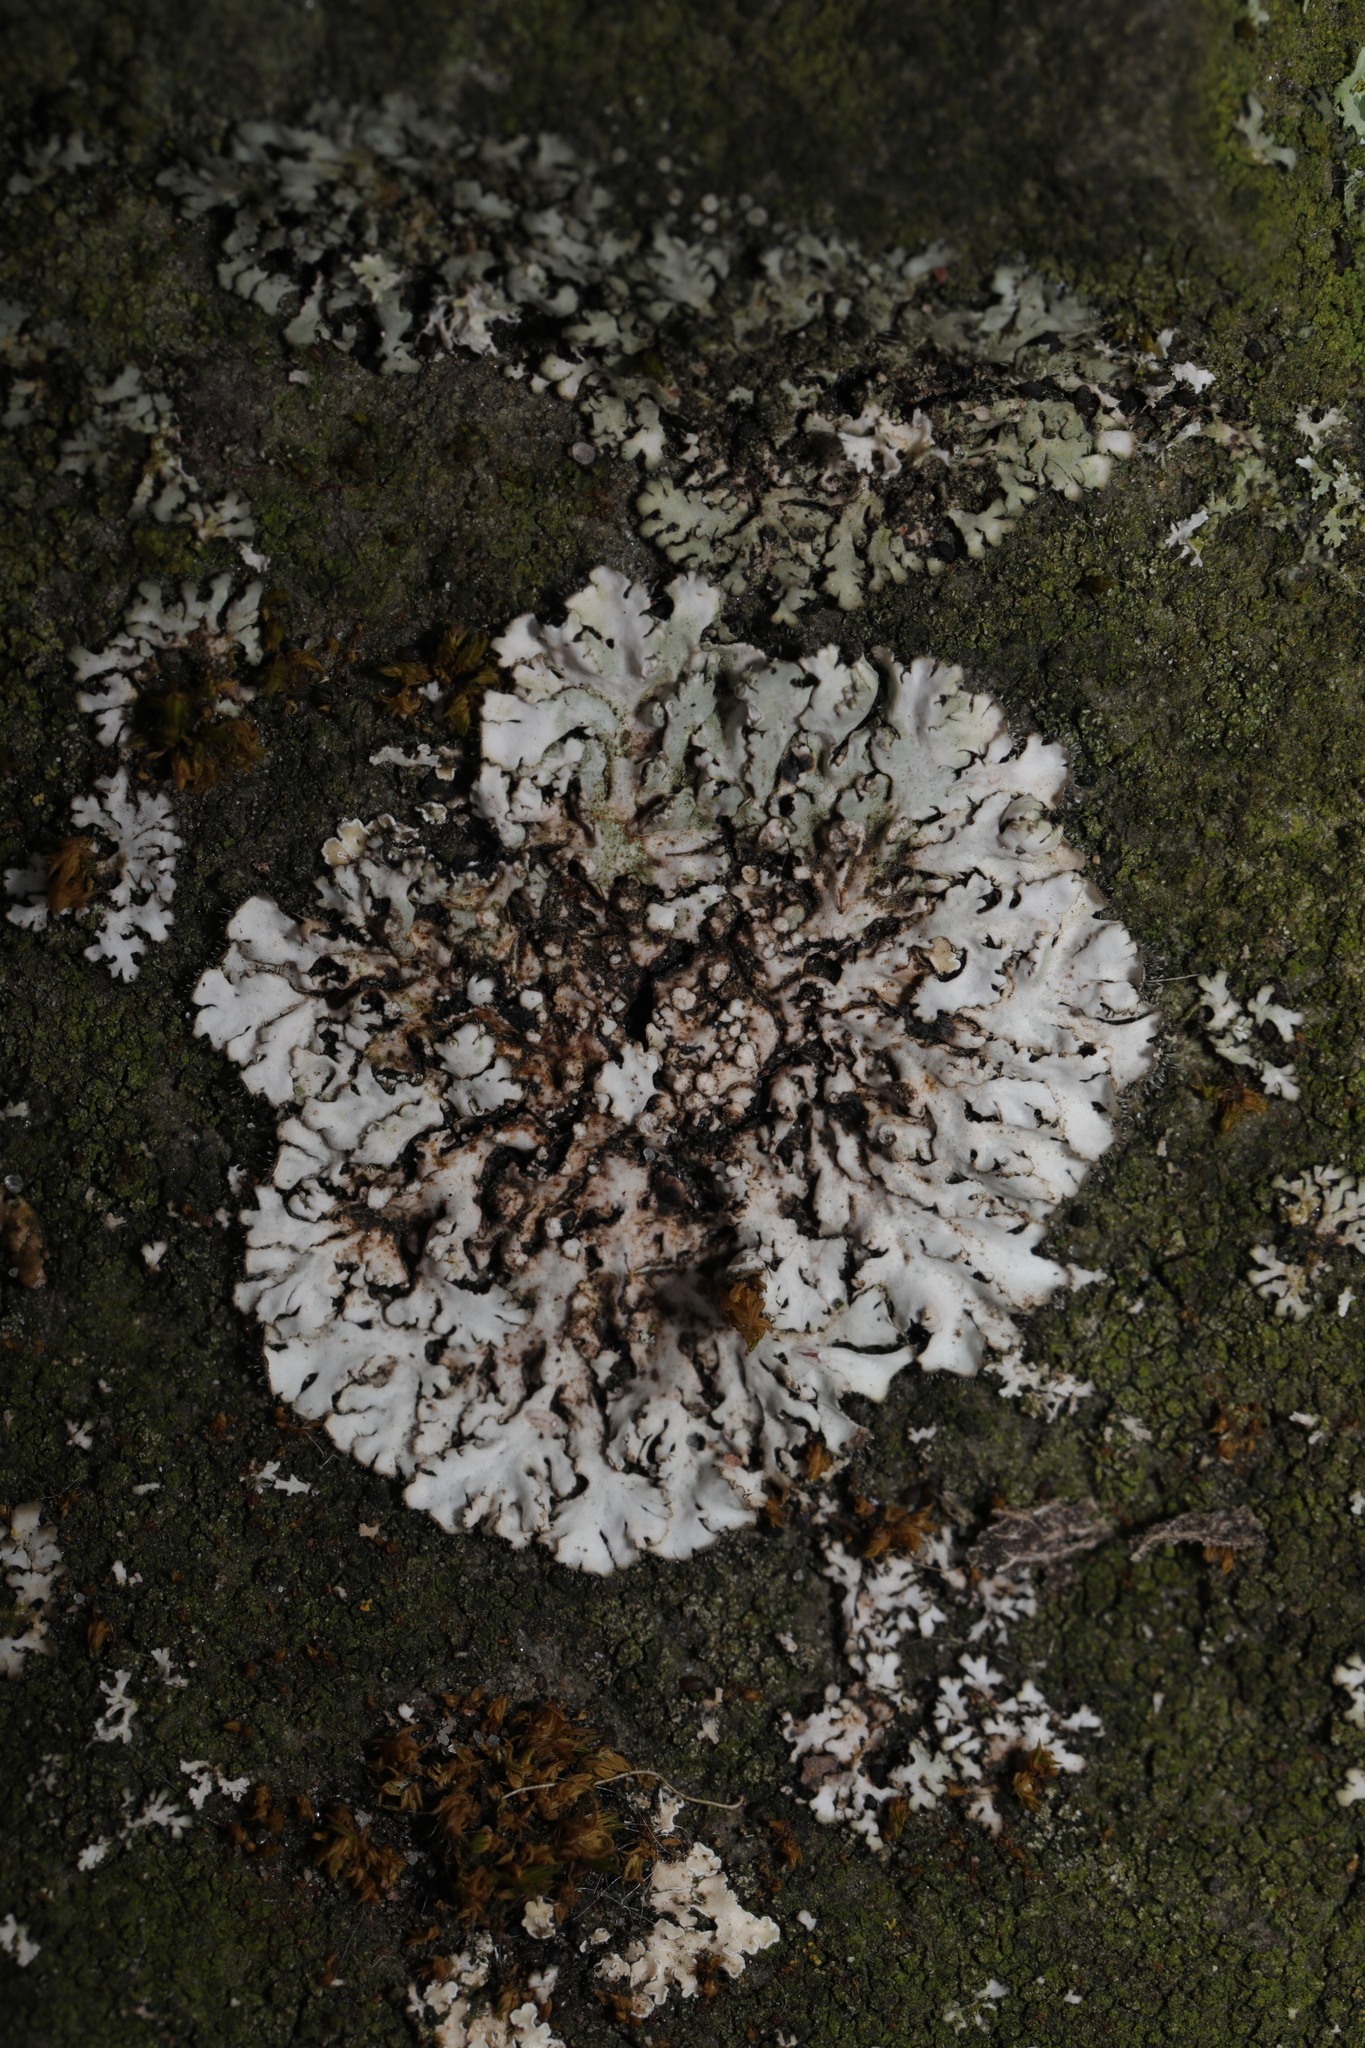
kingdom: Fungi
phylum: Ascomycota
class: Lecanoromycetes
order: Caliciales
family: Physciaceae
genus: Phaeophyscia
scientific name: Phaeophyscia orbicularis
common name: Mealy shadow lichen
